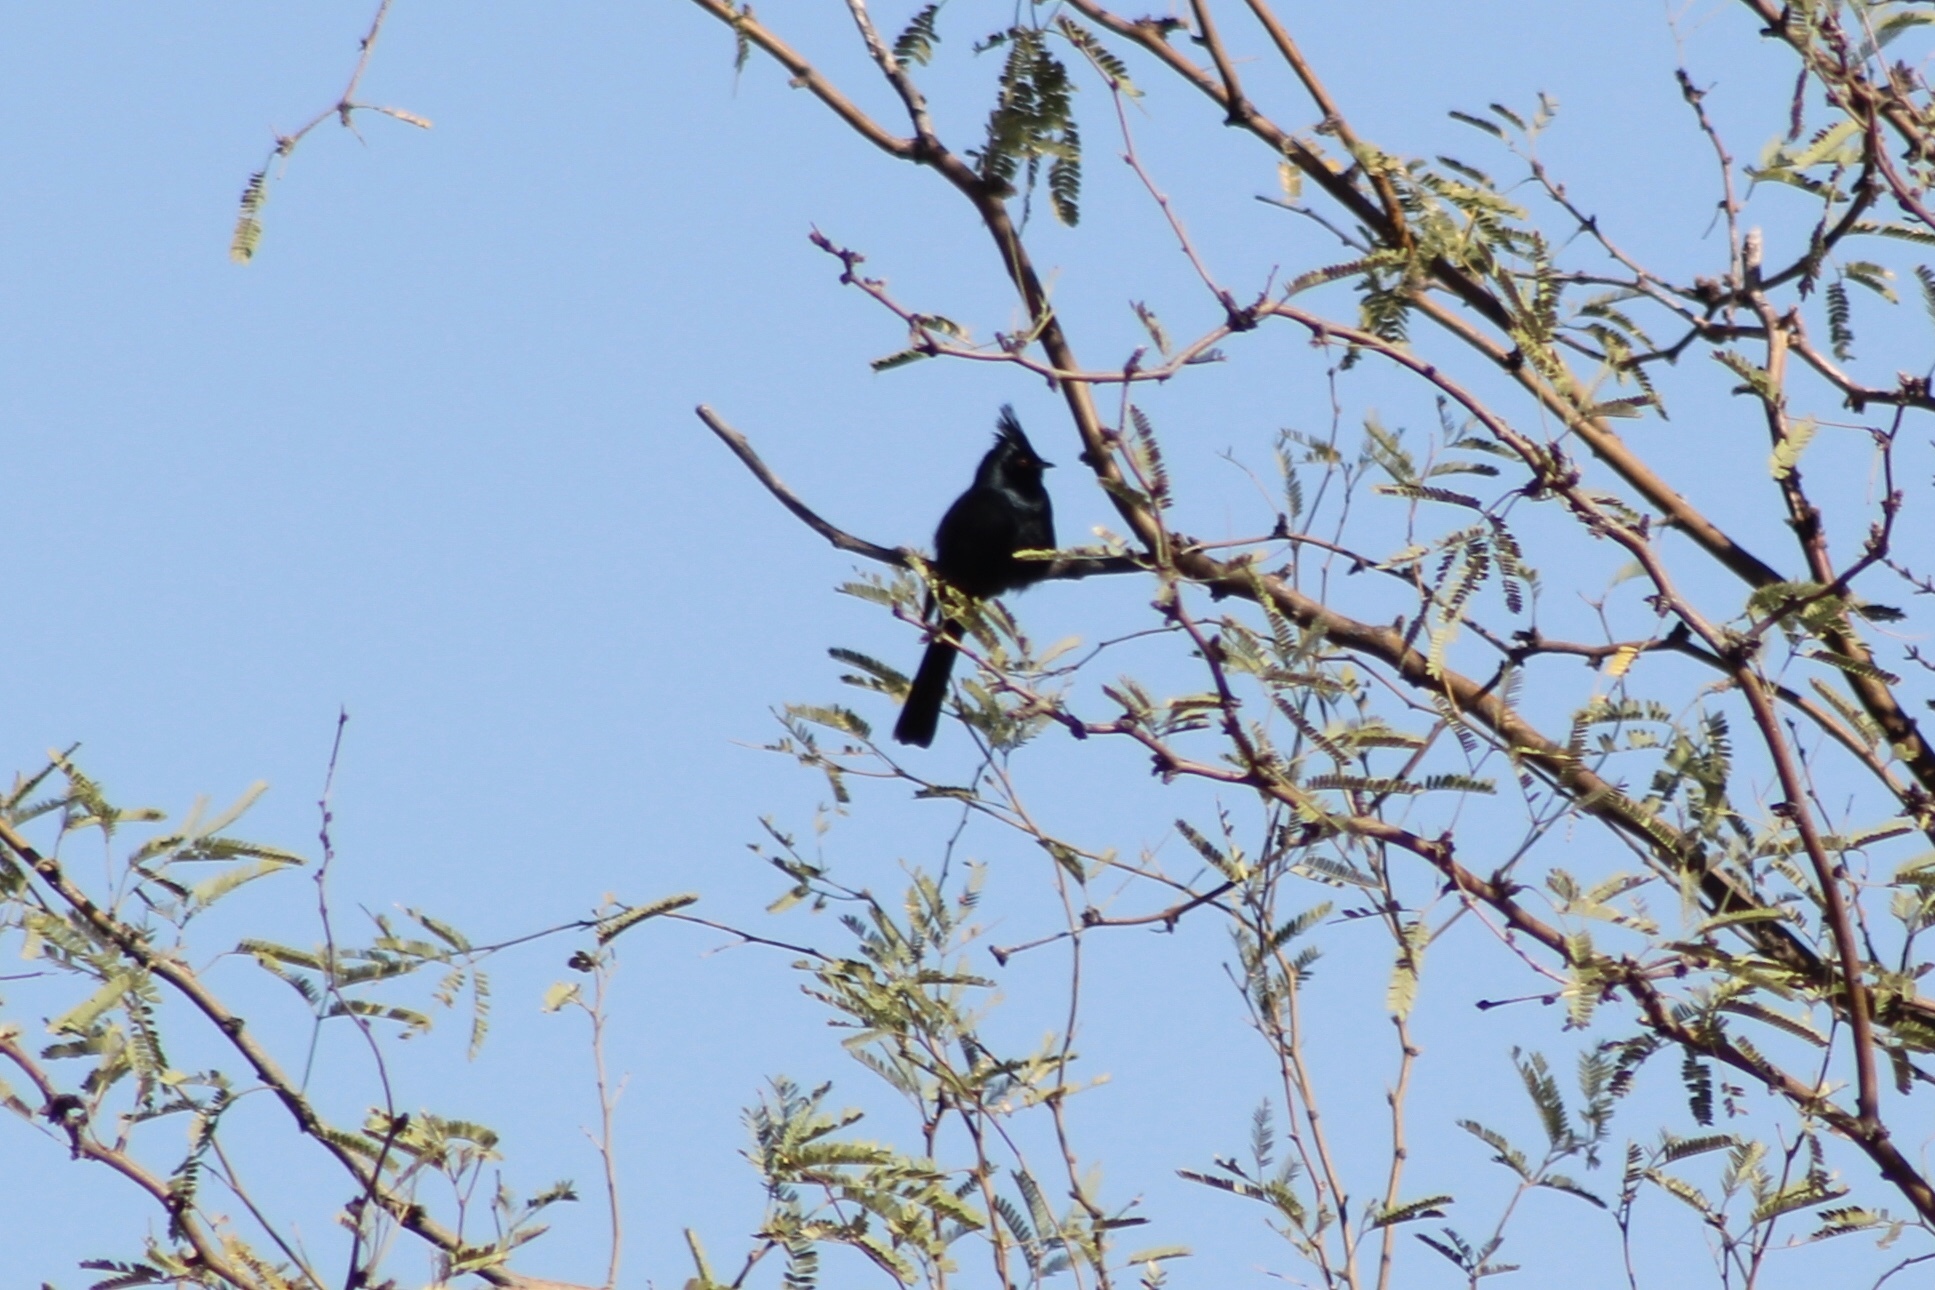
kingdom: Animalia
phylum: Chordata
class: Aves
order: Passeriformes
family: Ptilogonatidae
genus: Phainopepla
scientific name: Phainopepla nitens
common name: Phainopepla
